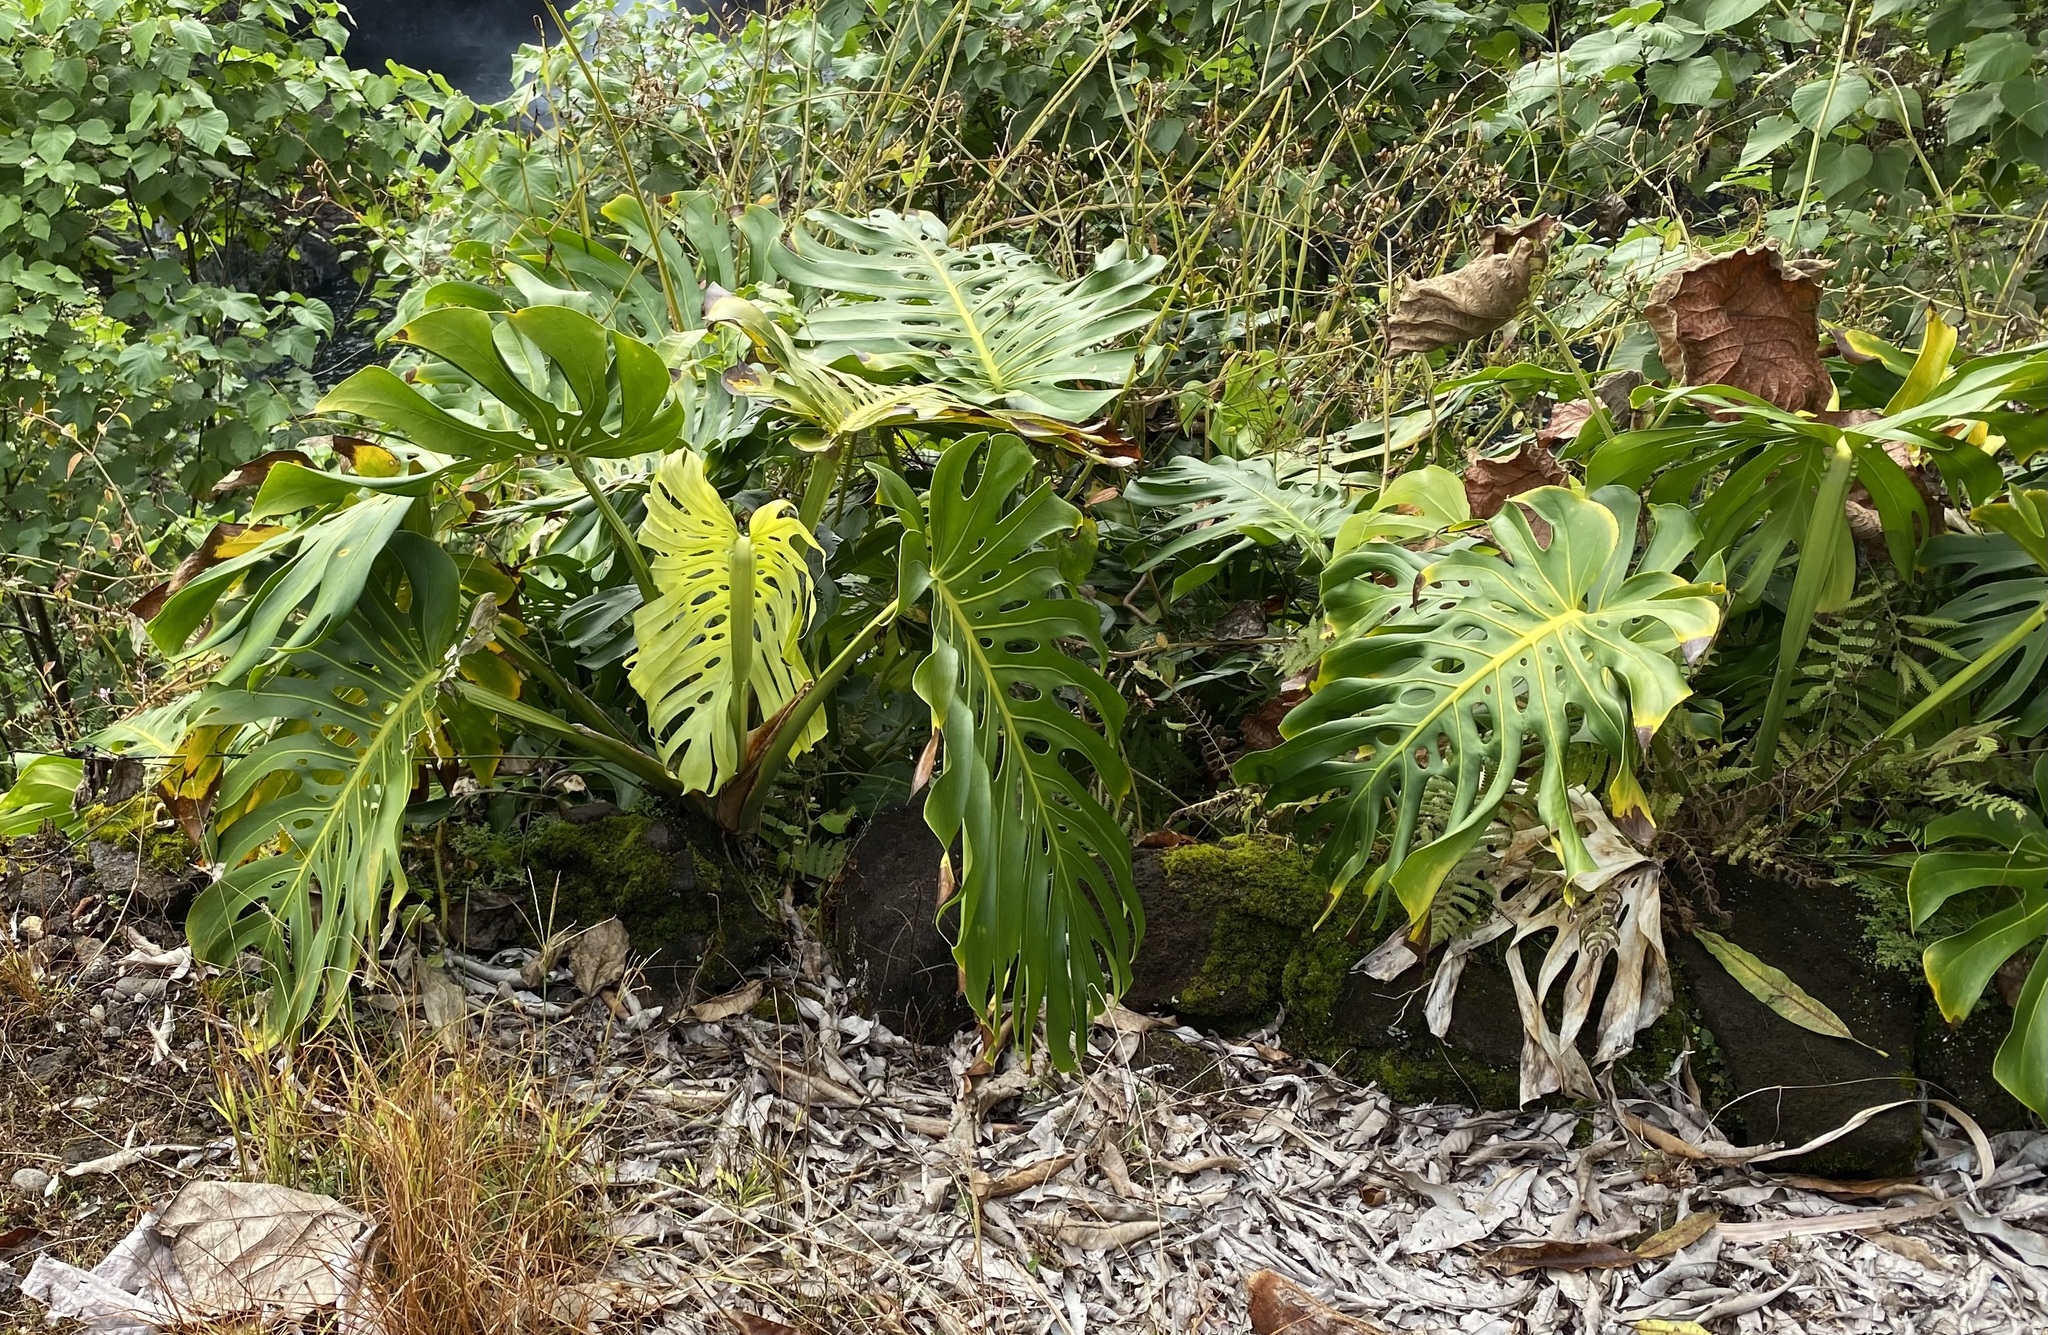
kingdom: Plantae
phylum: Tracheophyta
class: Liliopsida
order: Alismatales
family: Araceae
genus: Monstera
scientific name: Monstera deliciosa
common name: Cut-leaf-philodendron
